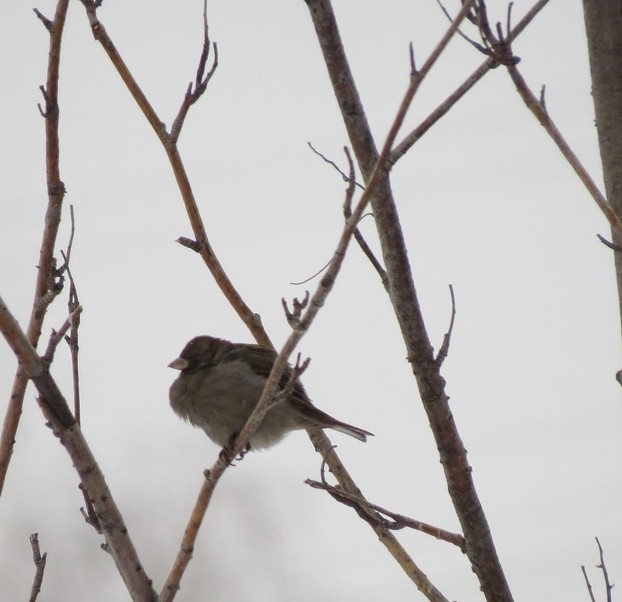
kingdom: Animalia
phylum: Chordata
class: Aves
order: Passeriformes
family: Passeridae
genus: Passer
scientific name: Passer domesticus
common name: House sparrow
